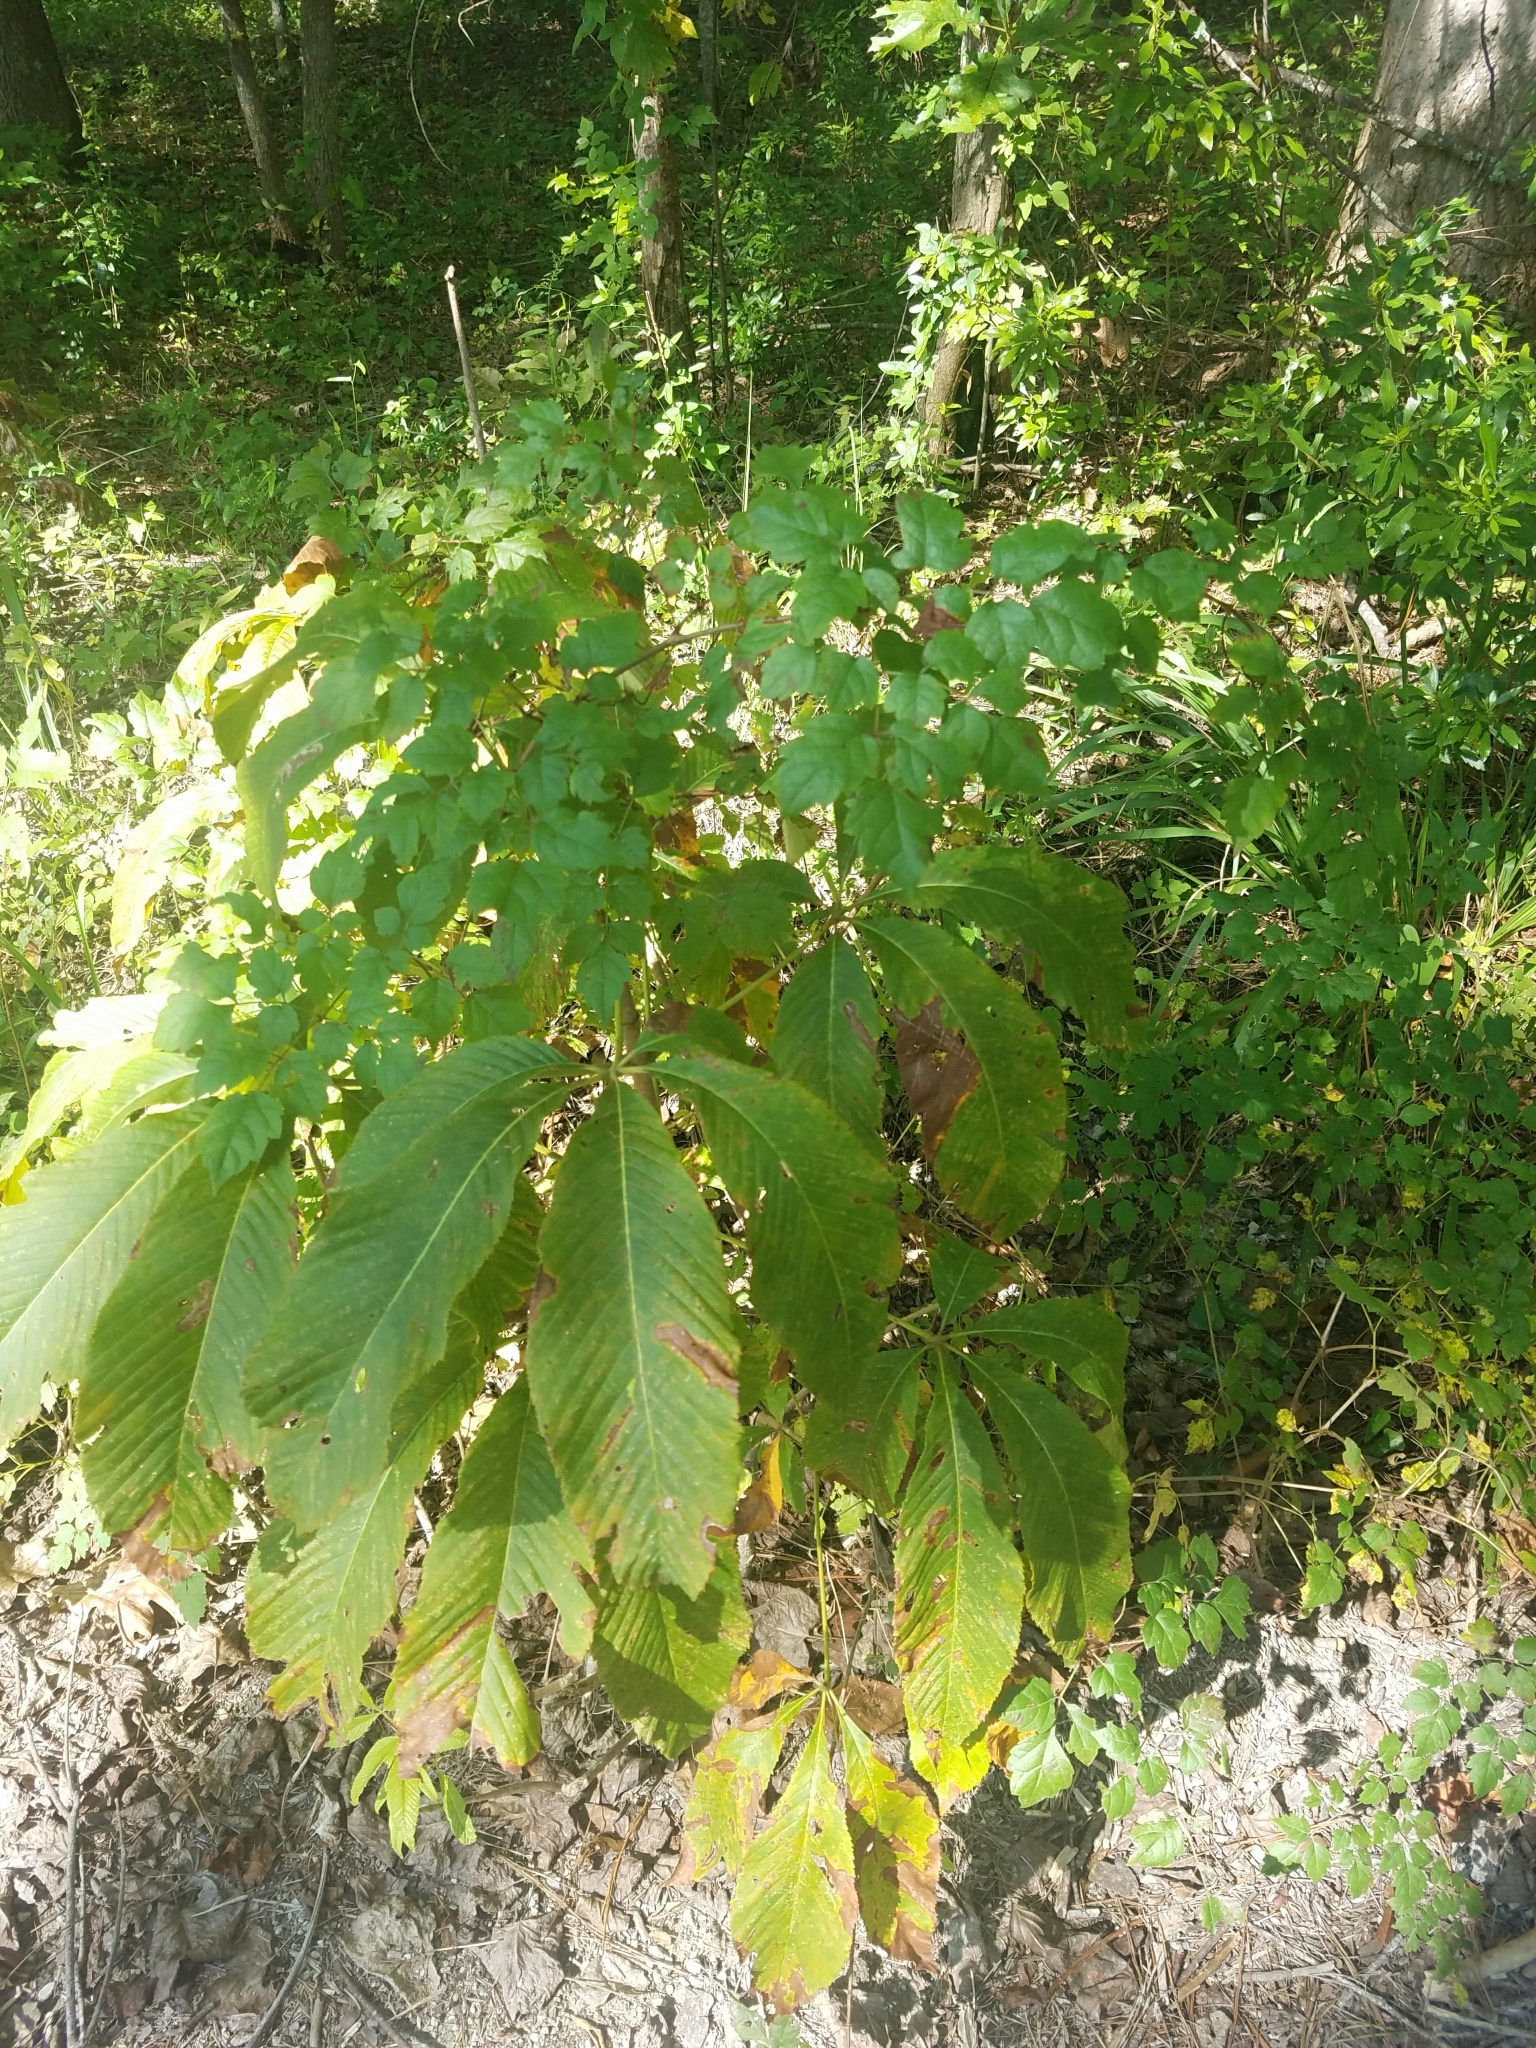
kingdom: Plantae
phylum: Tracheophyta
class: Magnoliopsida
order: Sapindales
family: Sapindaceae
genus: Aesculus
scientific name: Aesculus pavia
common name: Red buckeye
